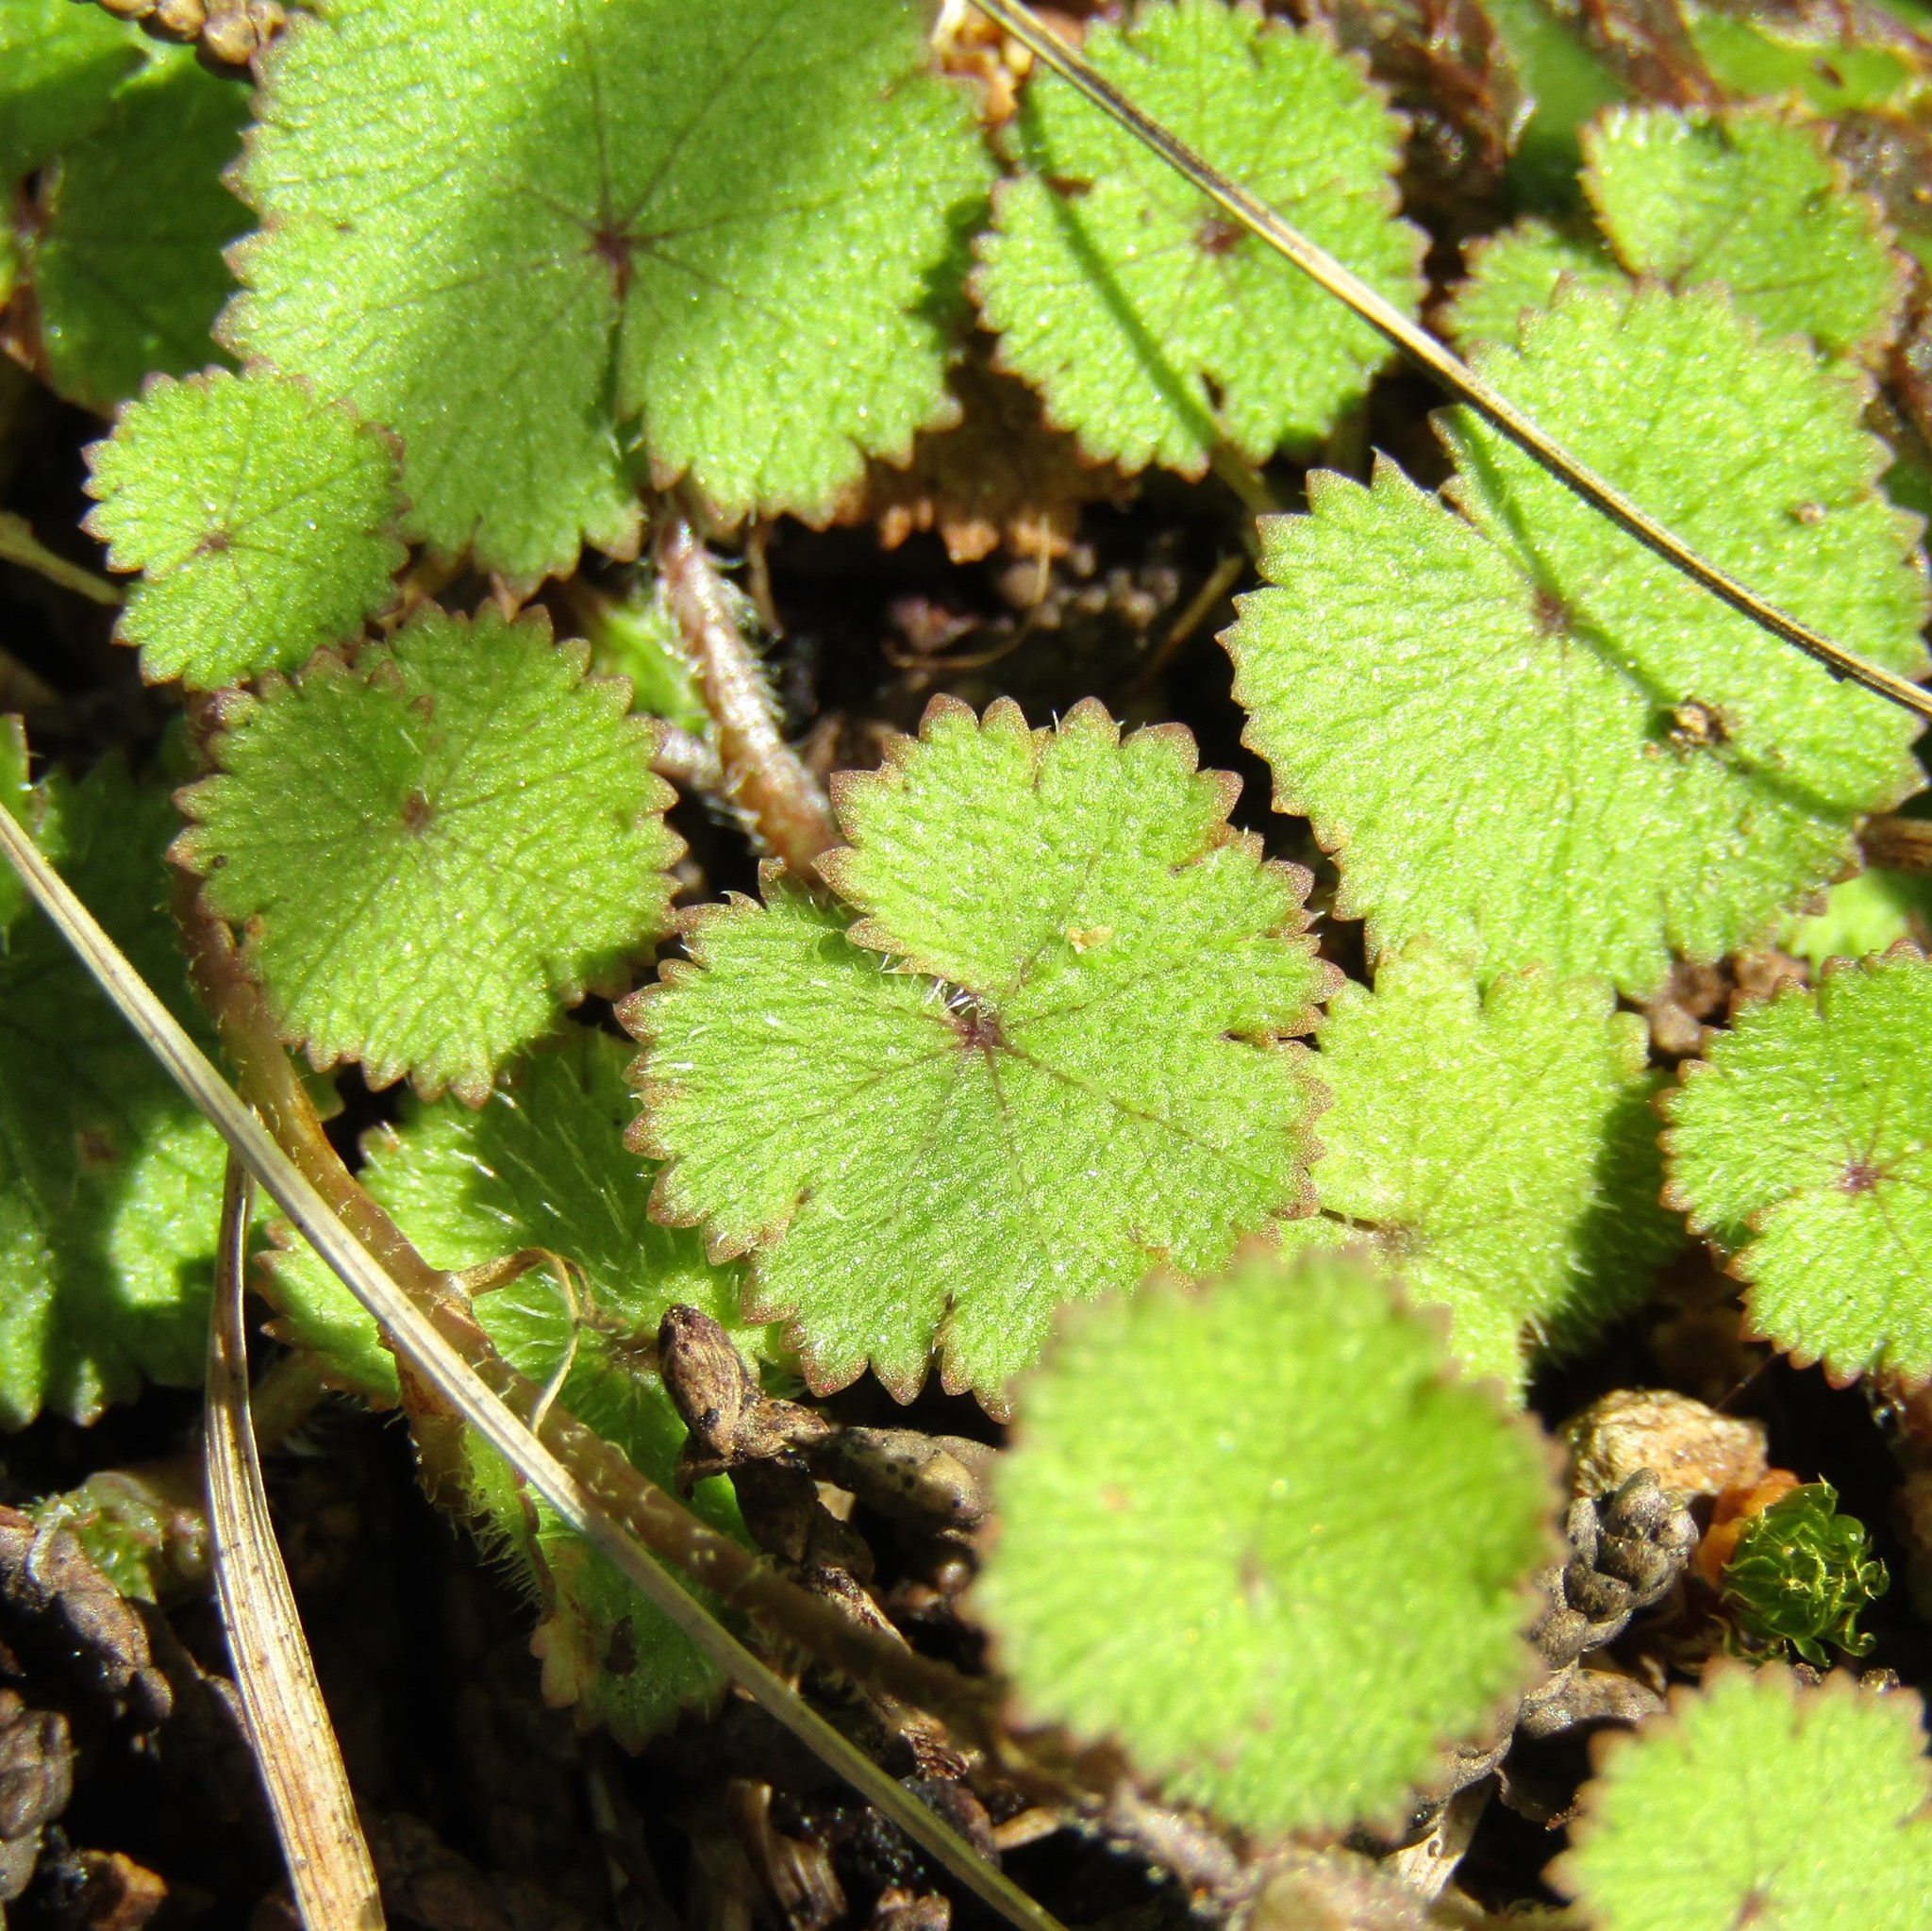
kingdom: Plantae
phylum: Tracheophyta
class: Magnoliopsida
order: Apiales
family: Araliaceae
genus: Hydrocotyle
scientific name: Hydrocotyle moschata
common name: Hairy pennywort
